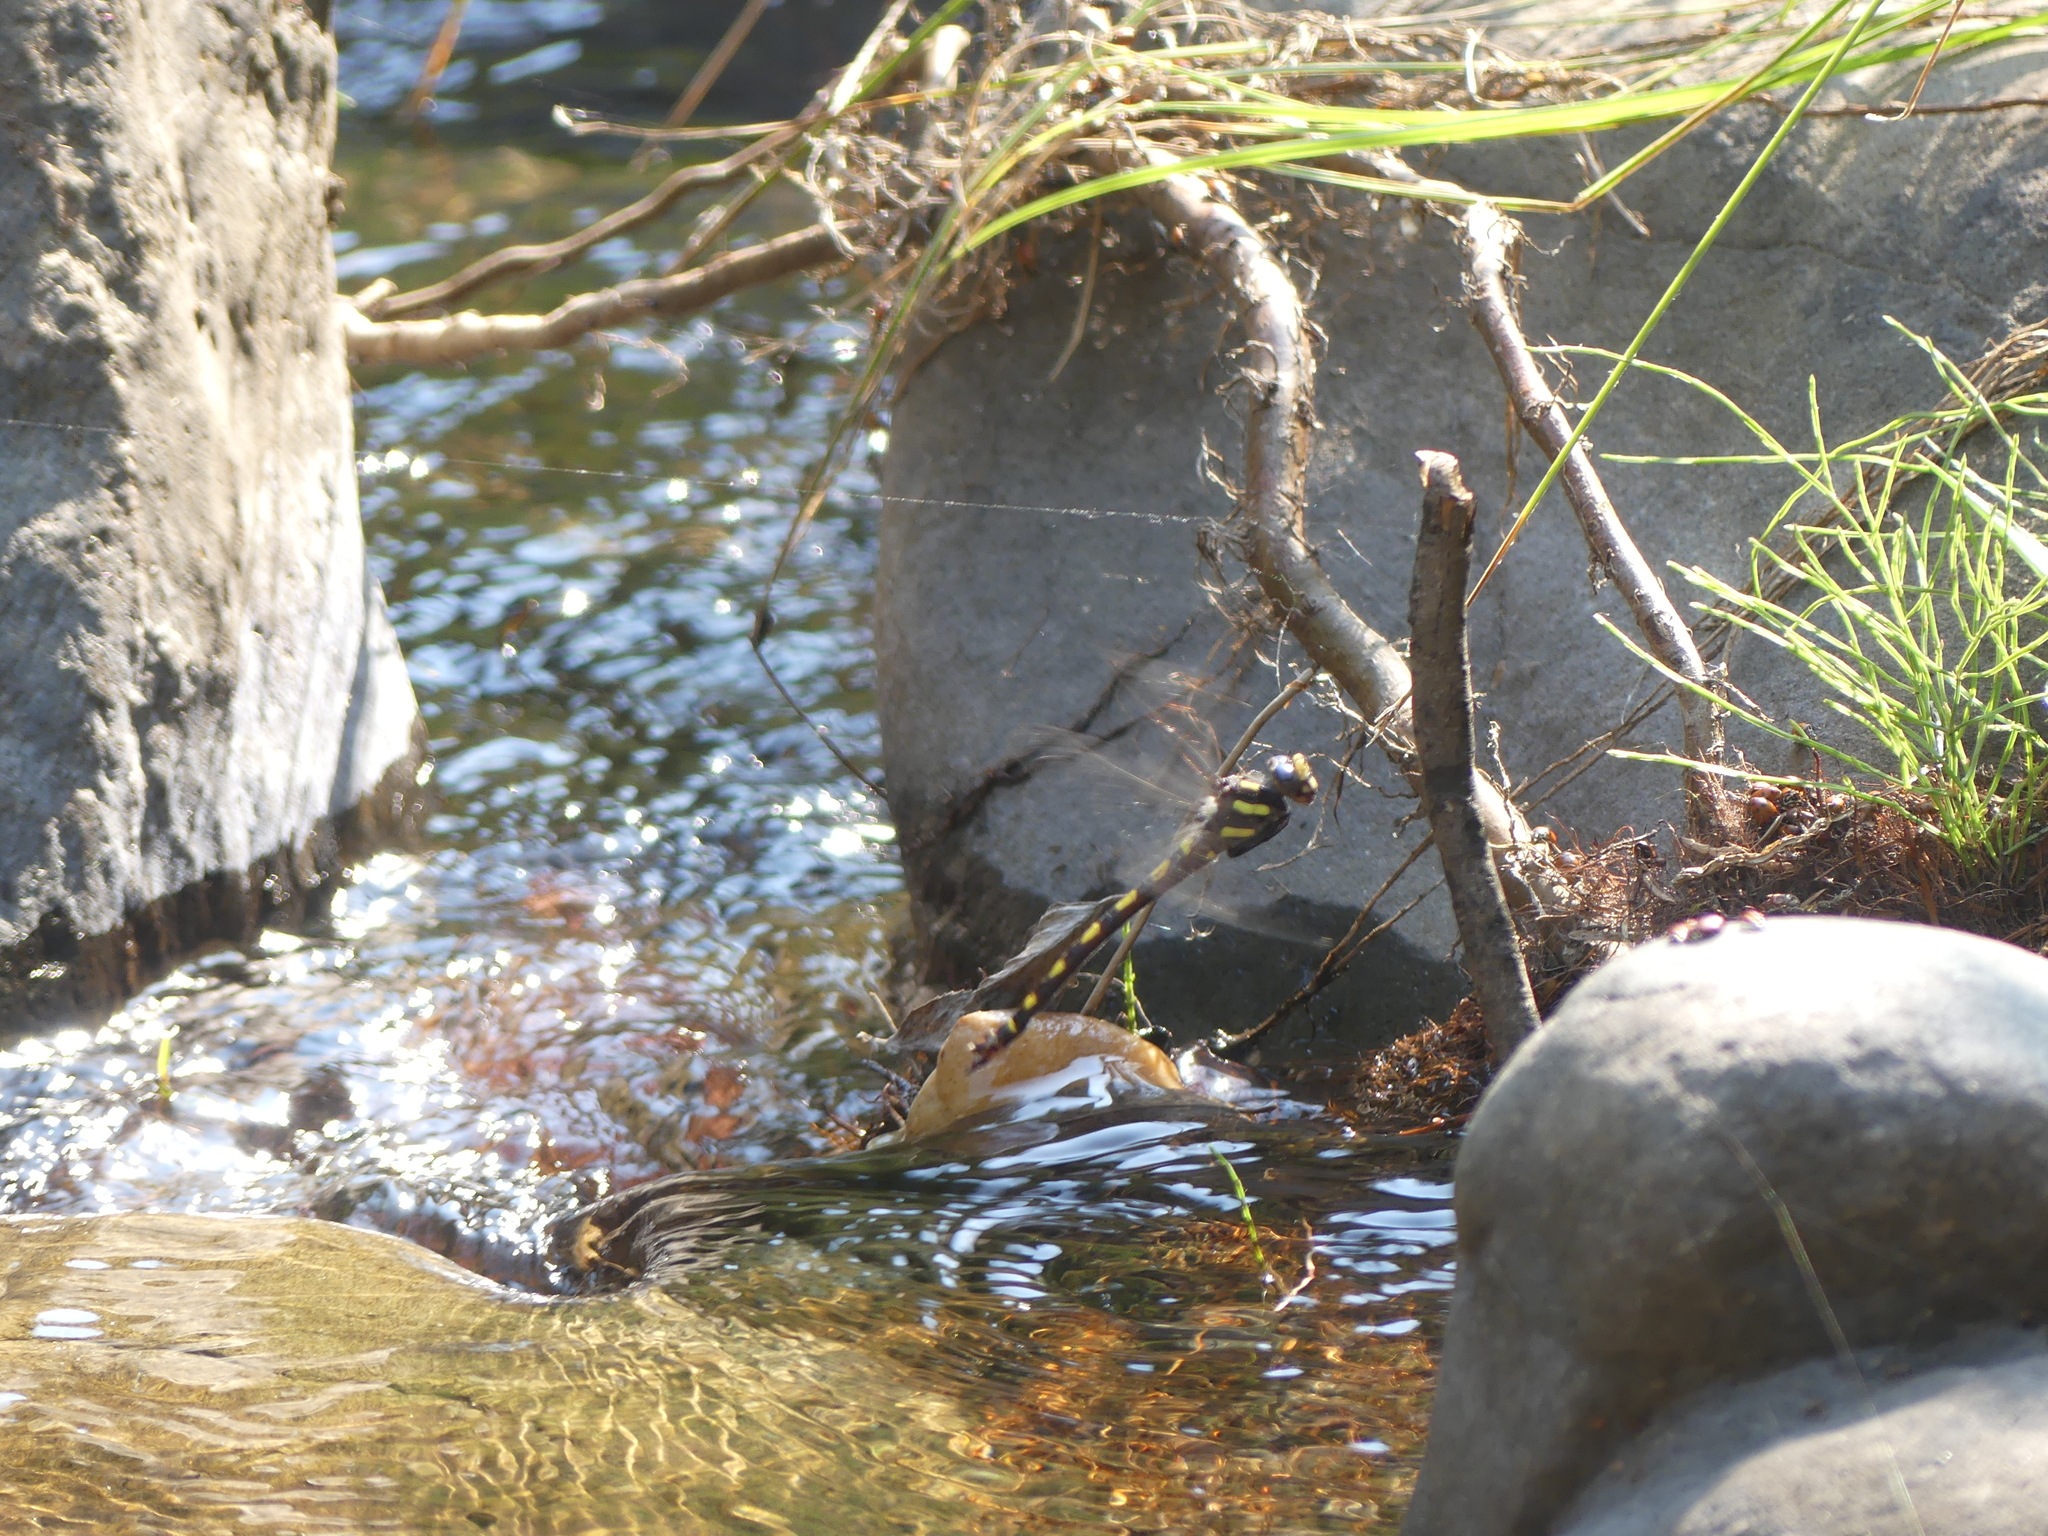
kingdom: Animalia
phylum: Arthropoda
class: Insecta
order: Odonata
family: Cordulegastridae
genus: Cordulegaster
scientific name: Cordulegaster dorsalis
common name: Pacific spiketail
